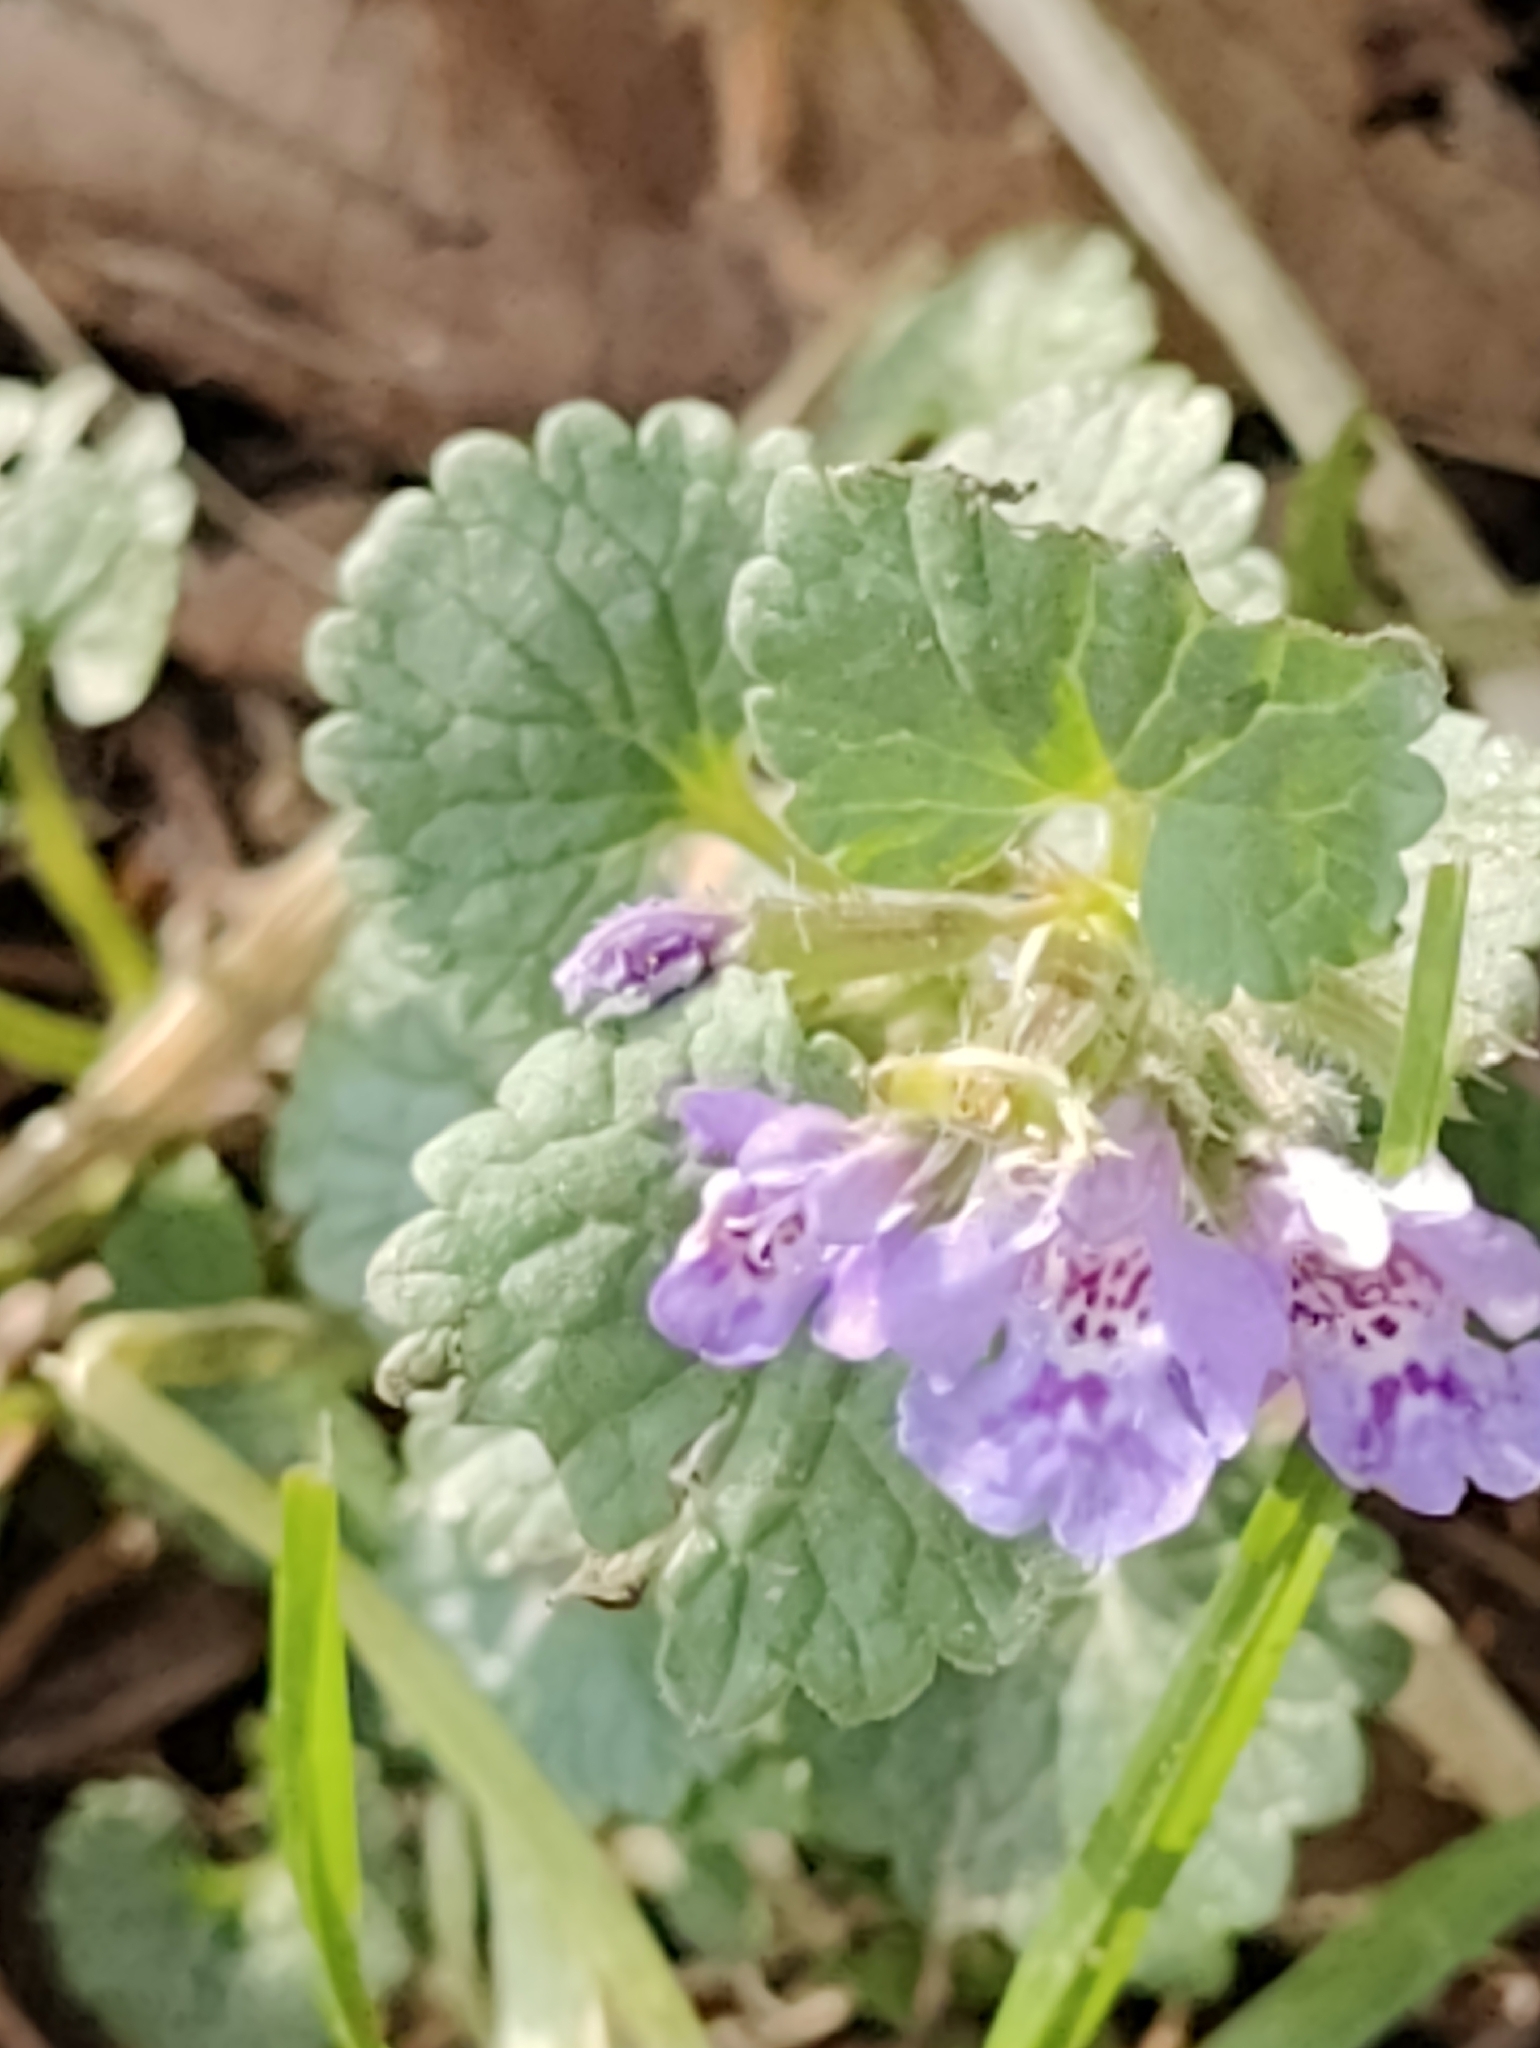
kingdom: Plantae
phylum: Tracheophyta
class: Magnoliopsida
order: Lamiales
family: Lamiaceae
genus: Glechoma
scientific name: Glechoma hederacea
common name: Ground ivy
